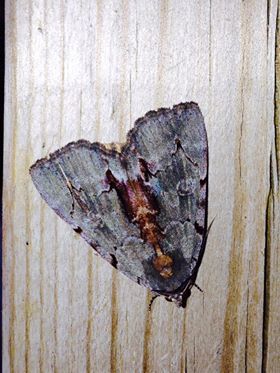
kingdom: Animalia
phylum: Arthropoda
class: Insecta
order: Lepidoptera
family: Erebidae
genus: Catocala
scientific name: Catocala grynea
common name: Woody underwing
